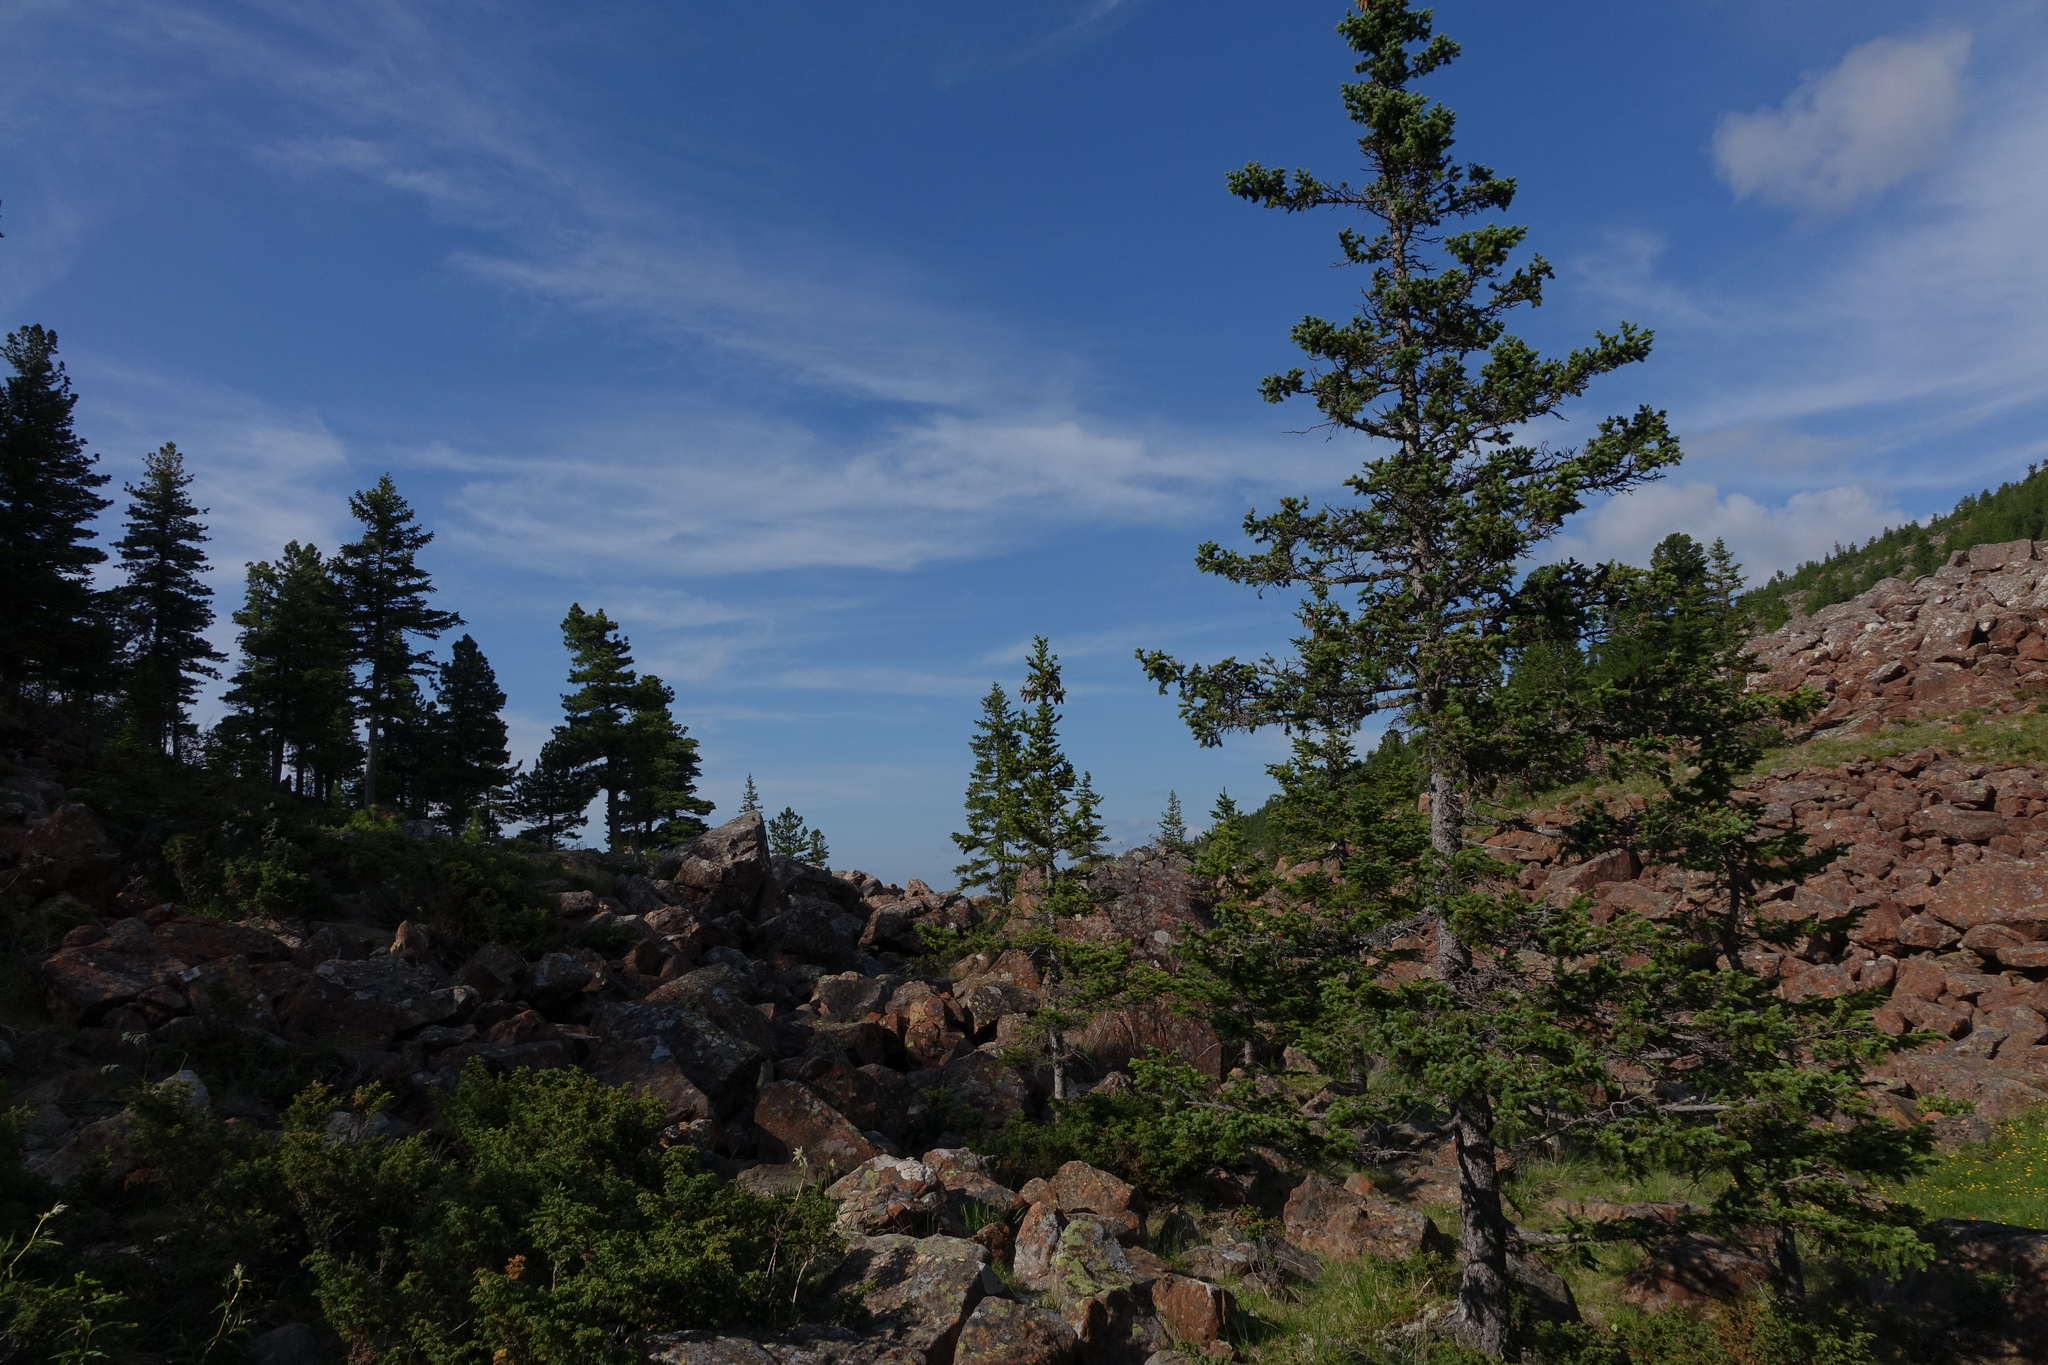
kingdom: Plantae
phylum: Tracheophyta
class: Pinopsida
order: Pinales
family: Pinaceae
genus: Picea
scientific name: Picea obovata
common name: Siberian spruce
